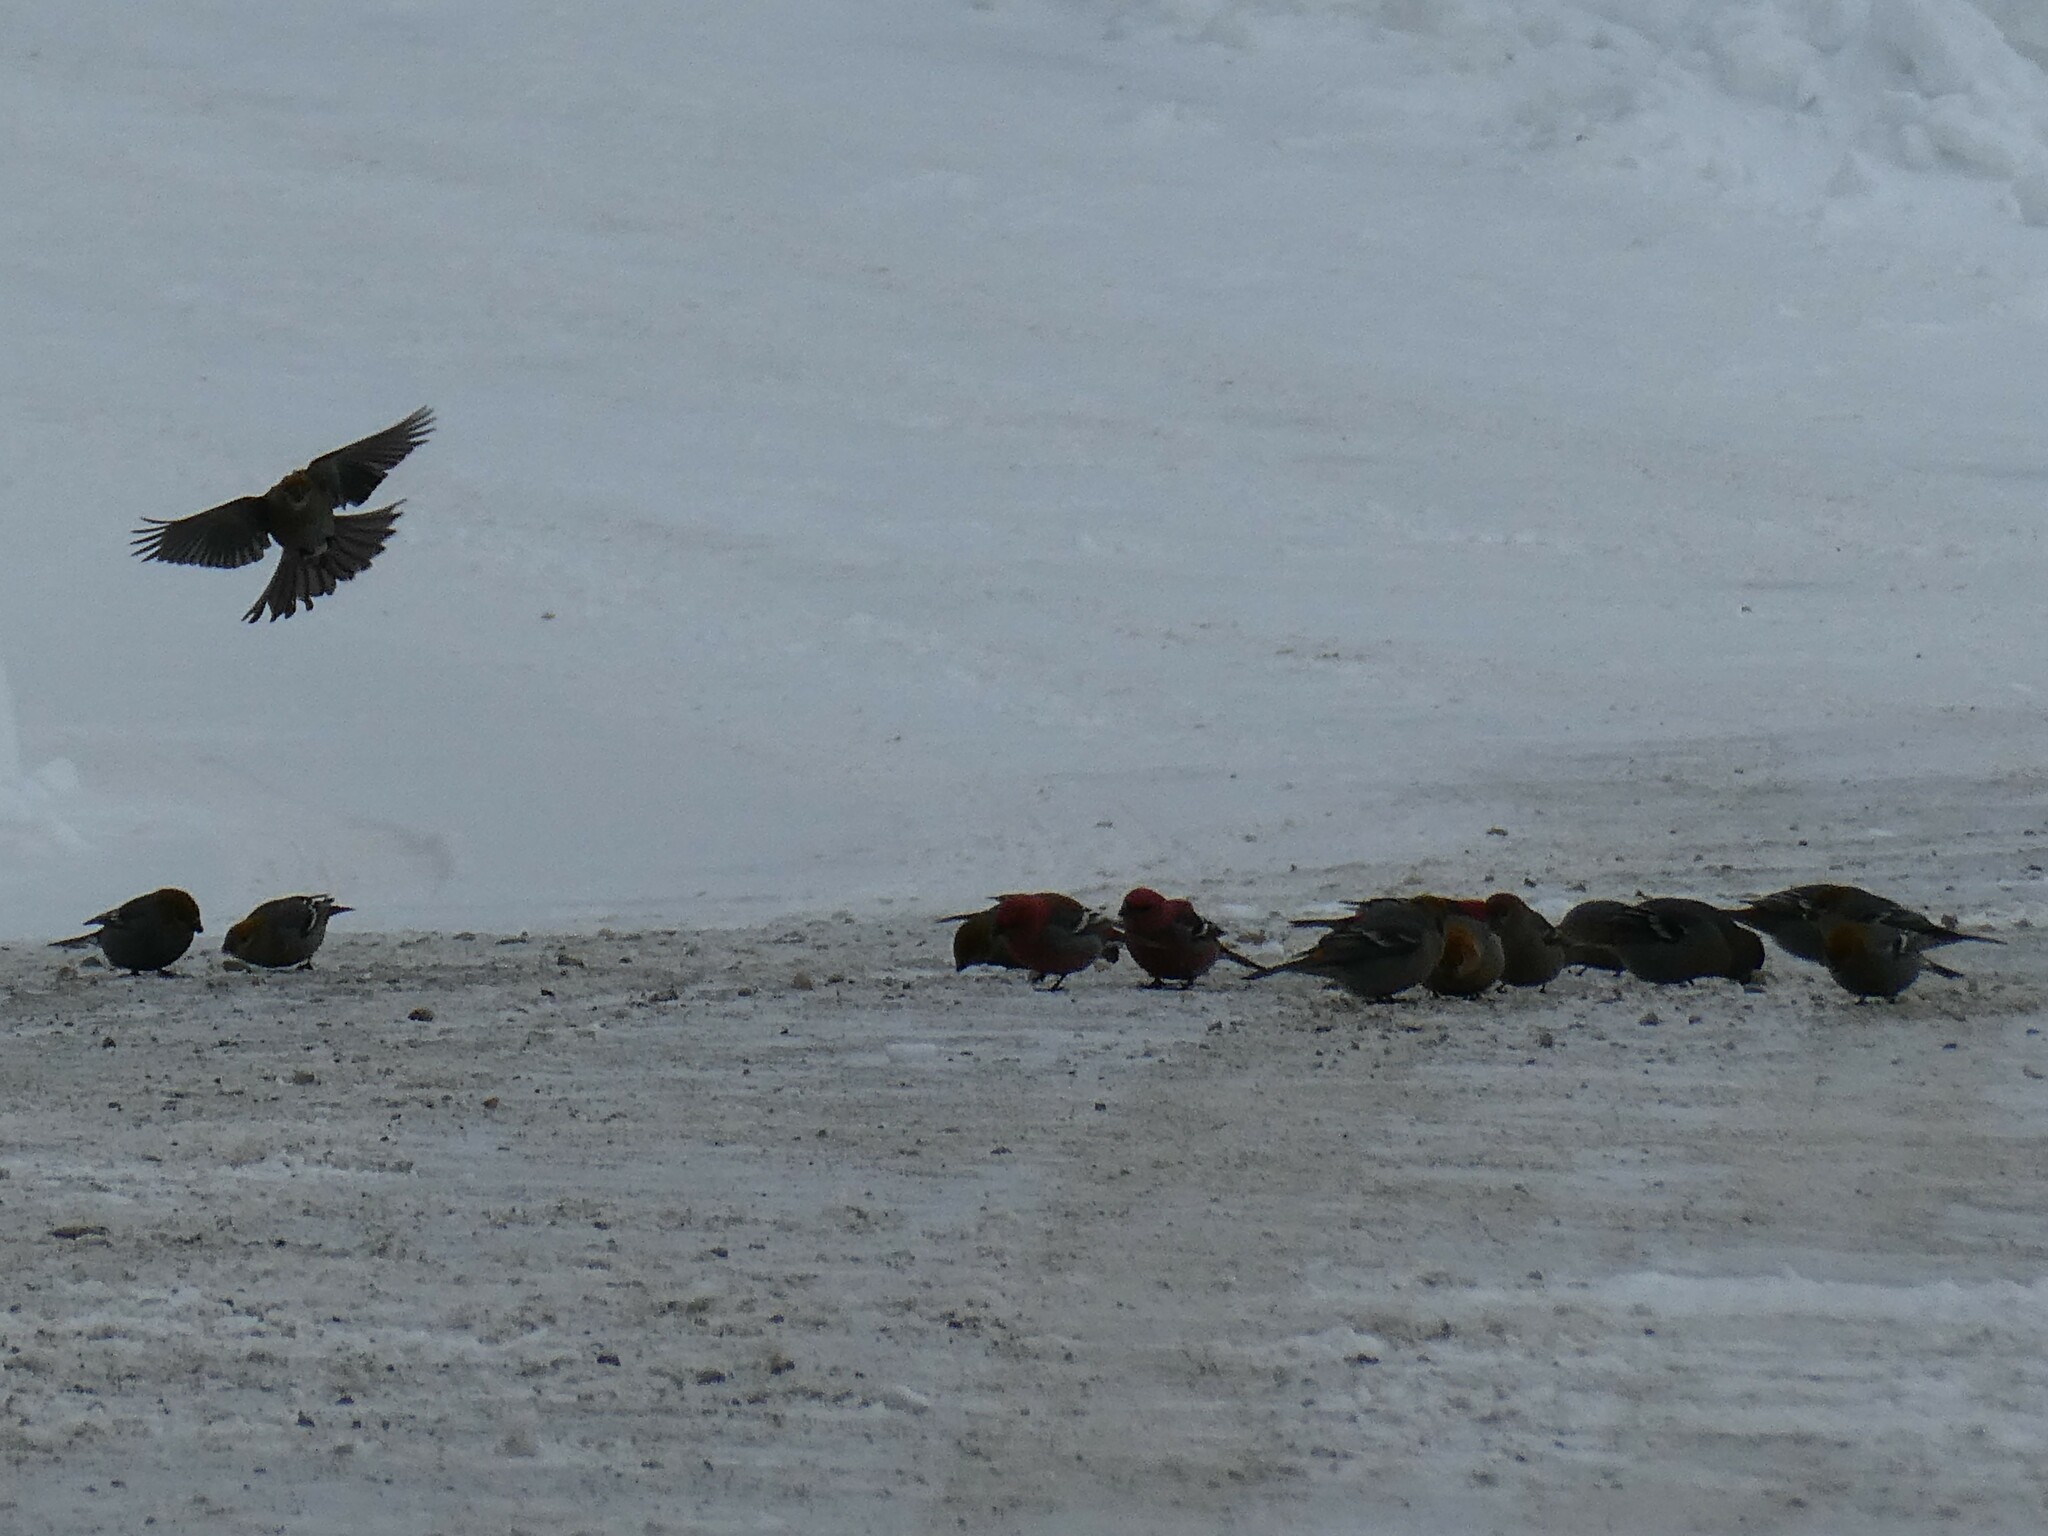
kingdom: Animalia
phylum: Chordata
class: Aves
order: Passeriformes
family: Fringillidae
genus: Pinicola
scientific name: Pinicola enucleator
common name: Pine grosbeak
